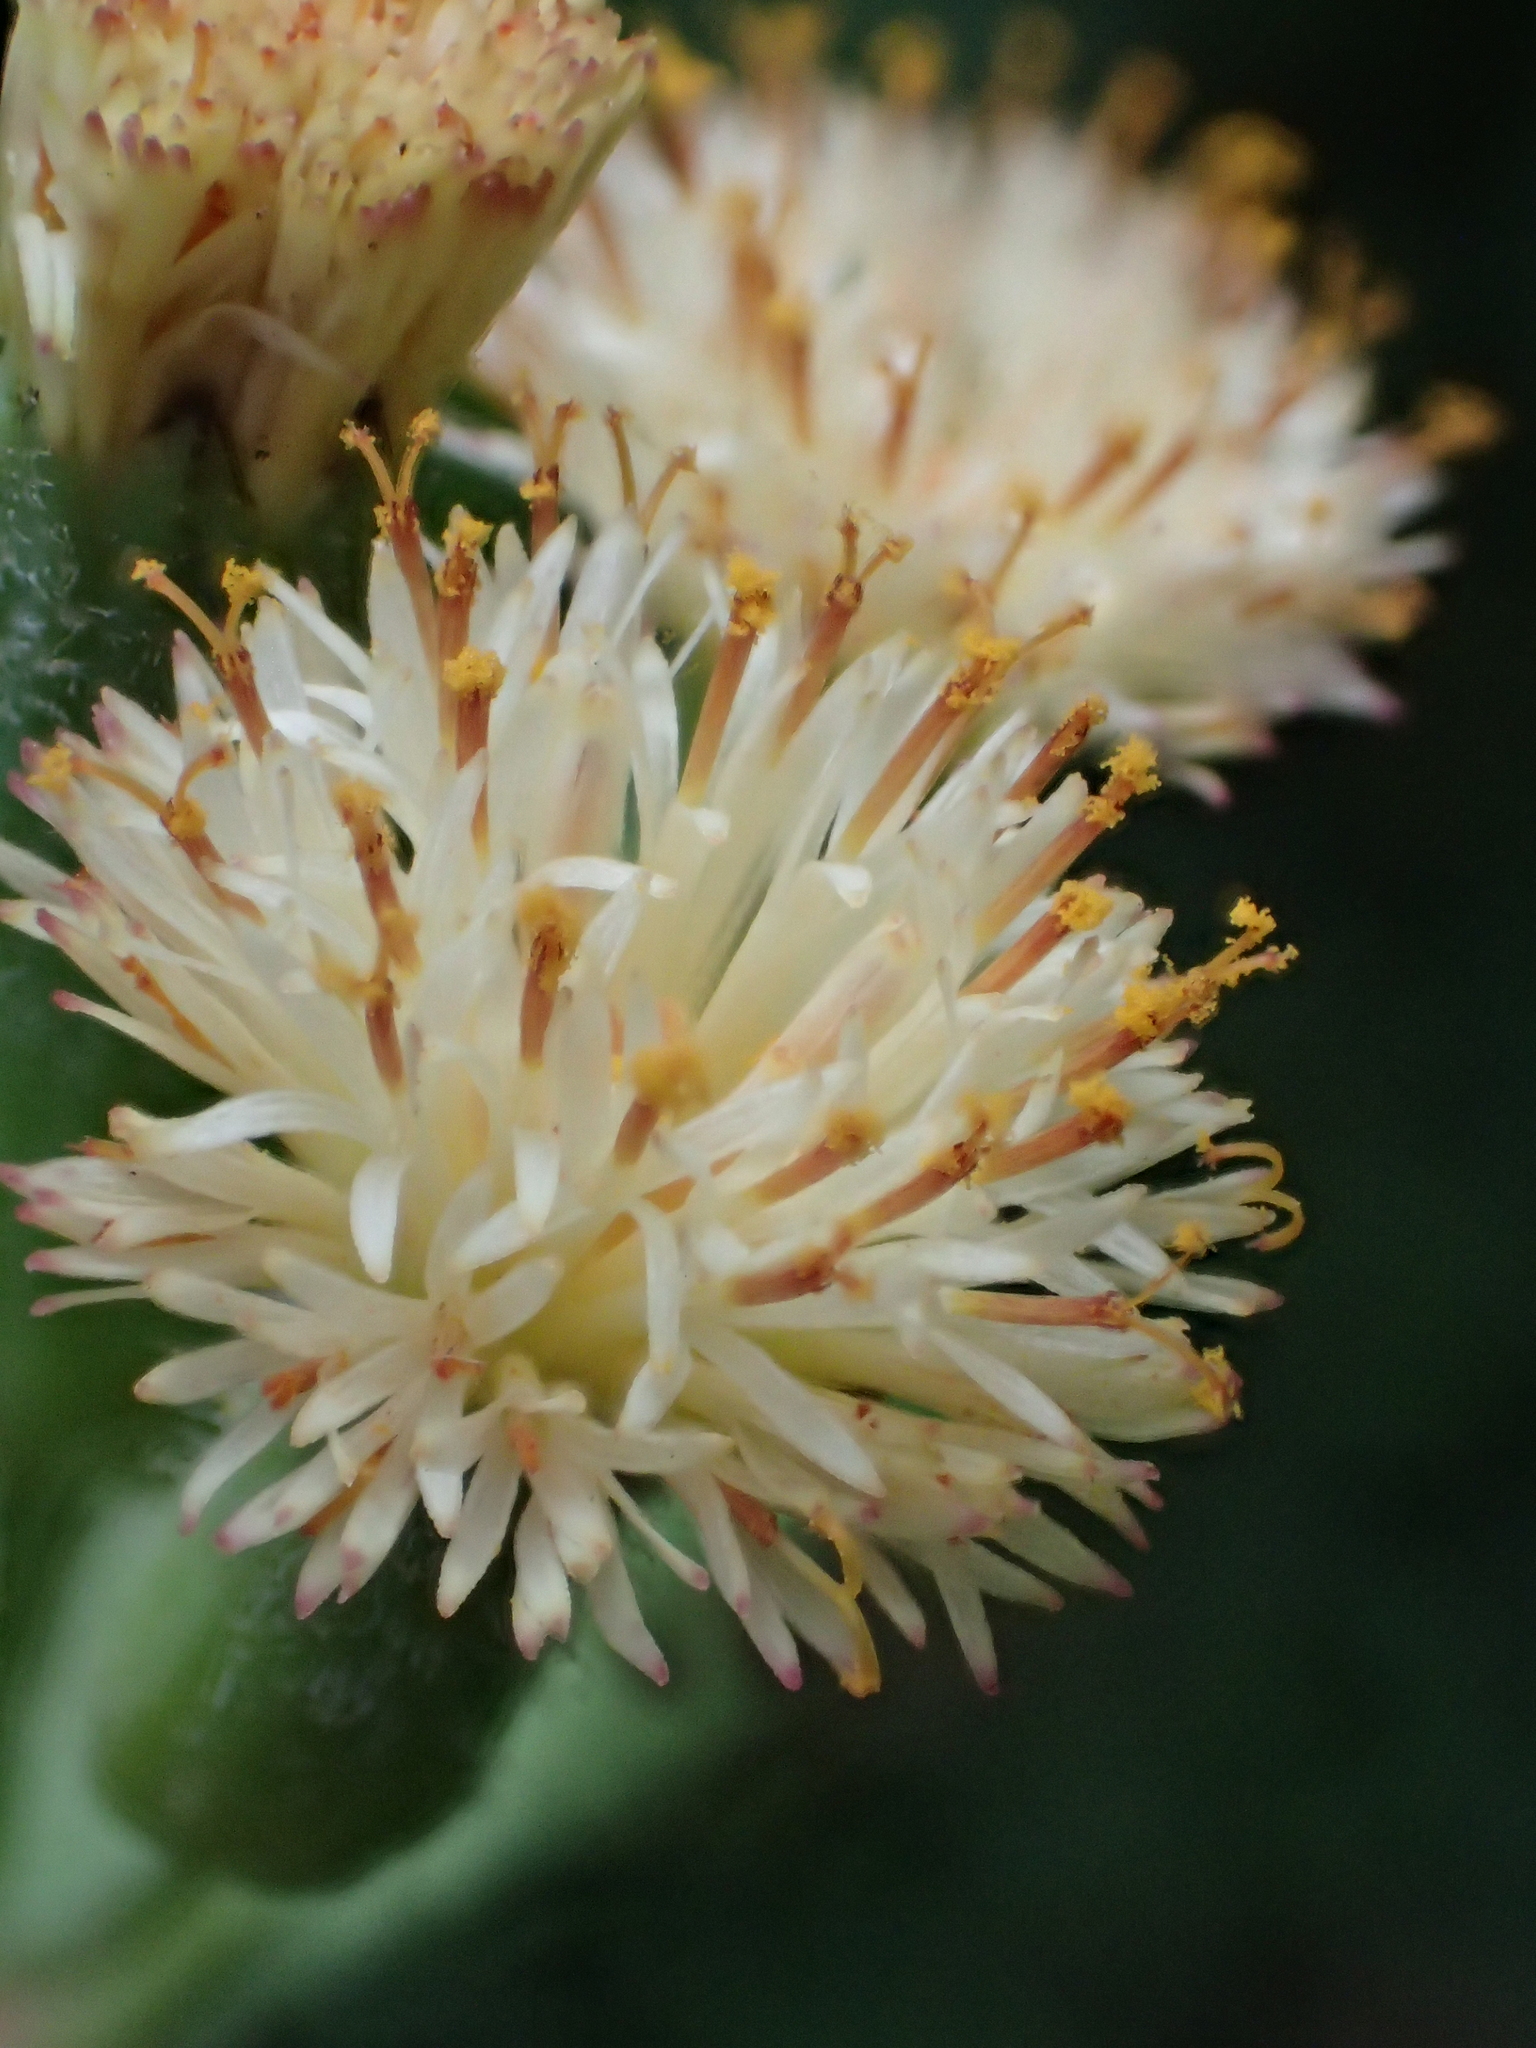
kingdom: Plantae
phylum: Tracheophyta
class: Magnoliopsida
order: Asterales
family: Asteraceae
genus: Emilia
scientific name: Emilia praetermissa
